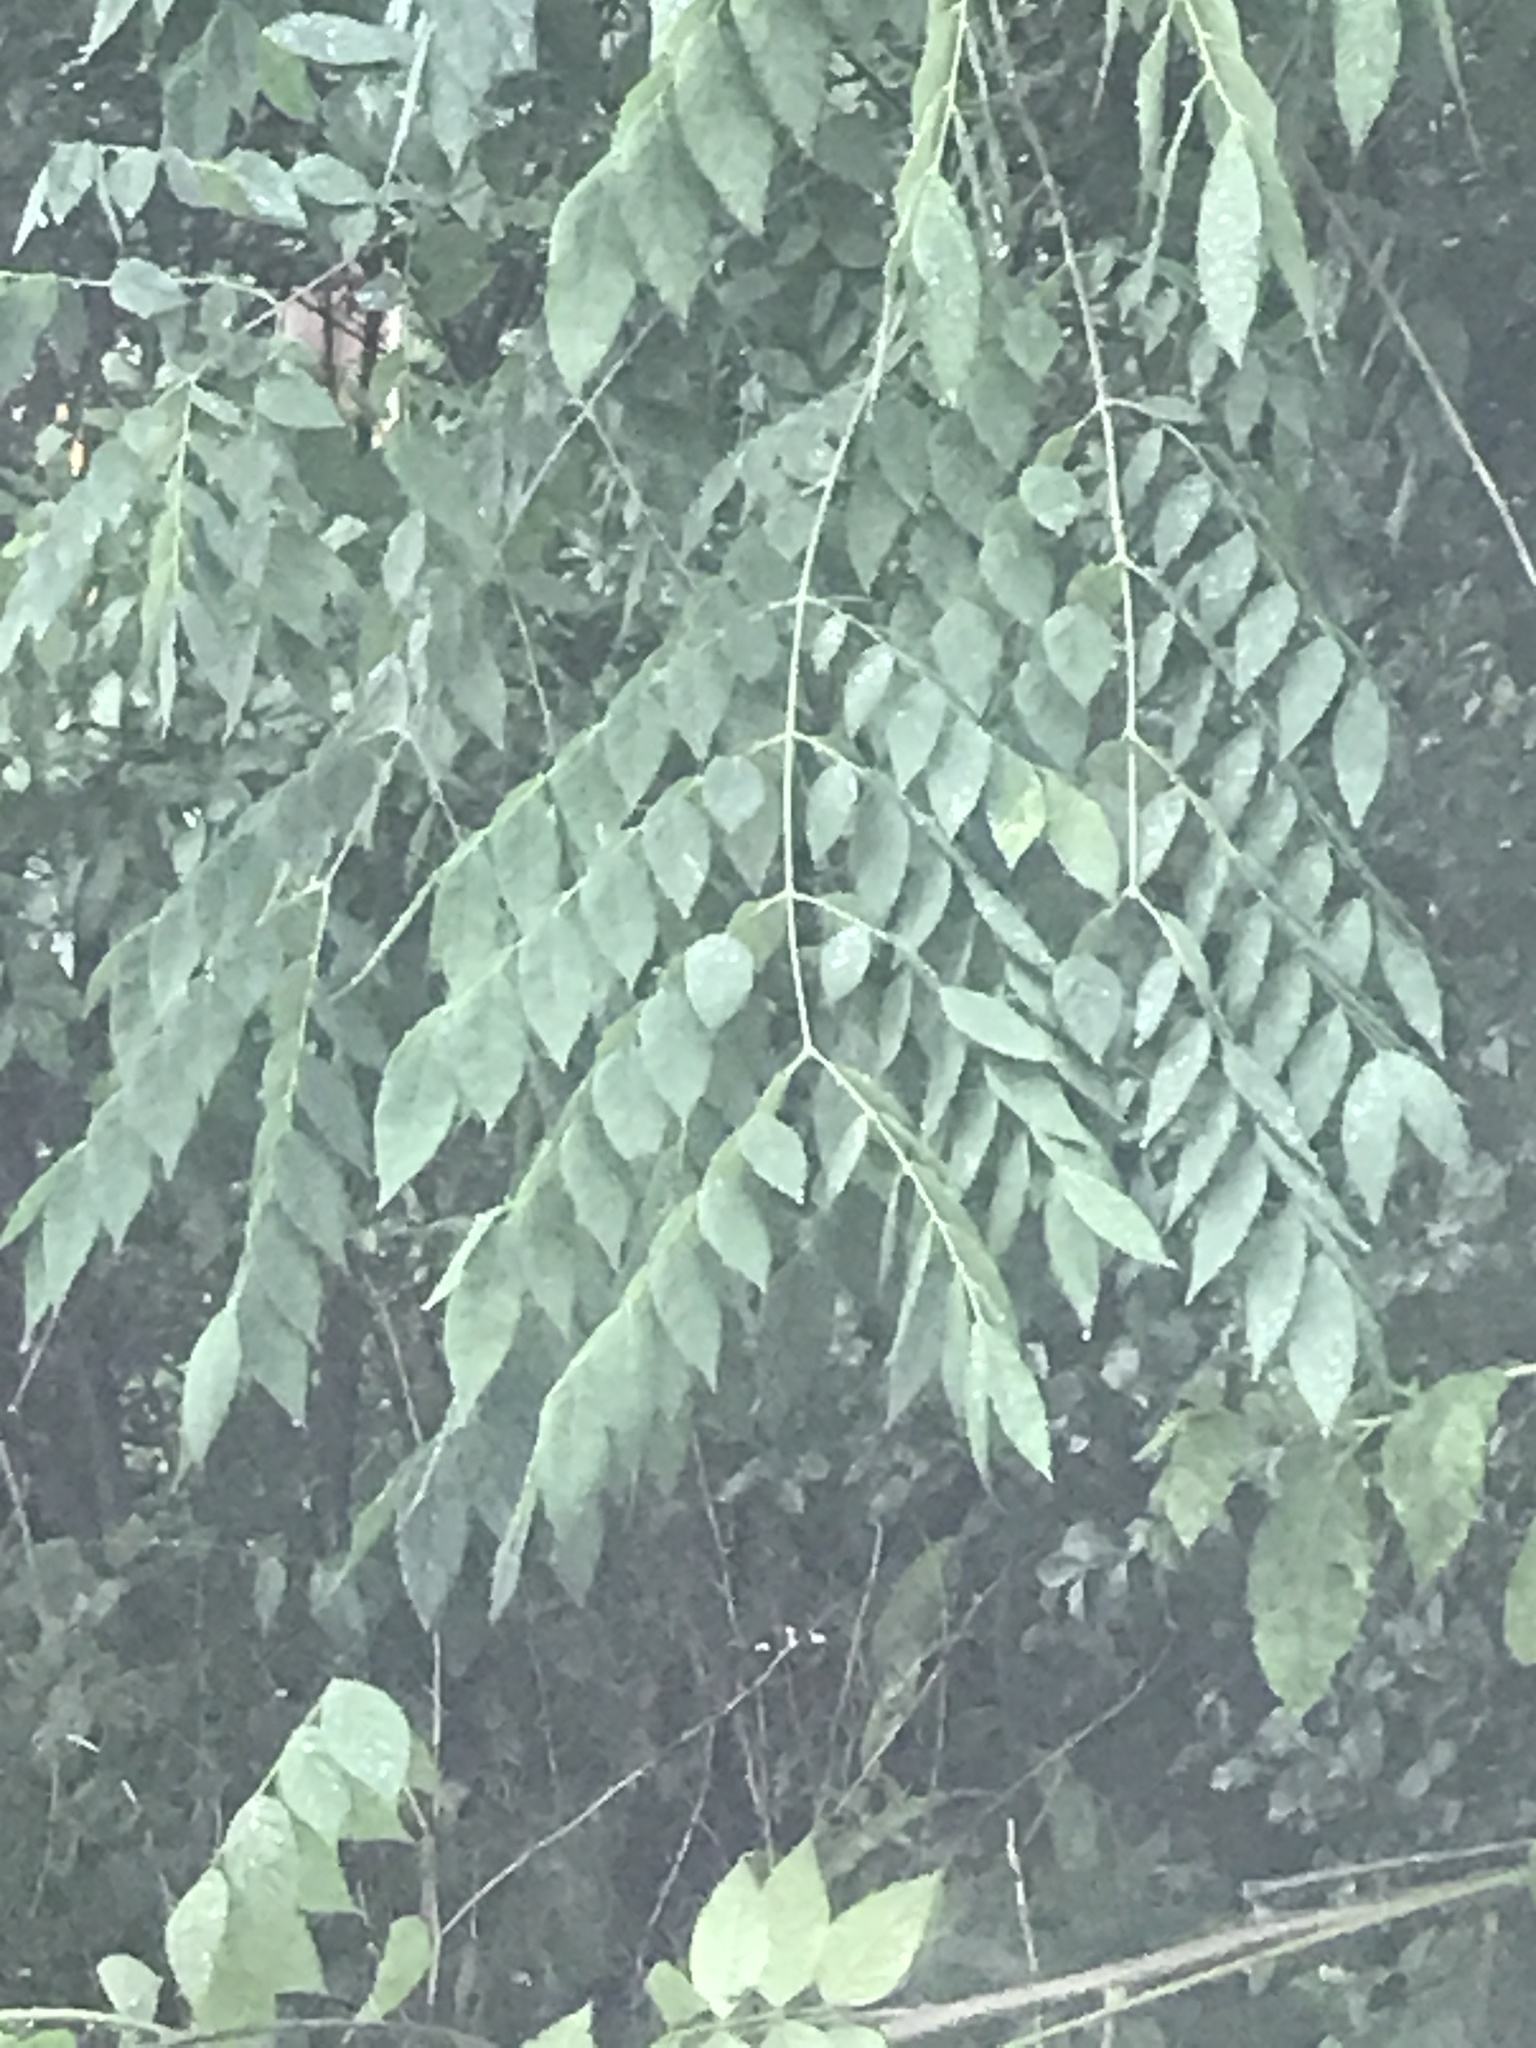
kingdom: Plantae
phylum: Tracheophyta
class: Magnoliopsida
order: Fabales
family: Fabaceae
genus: Gymnocladus
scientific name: Gymnocladus dioicus
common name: Kentucky coffee-tree
